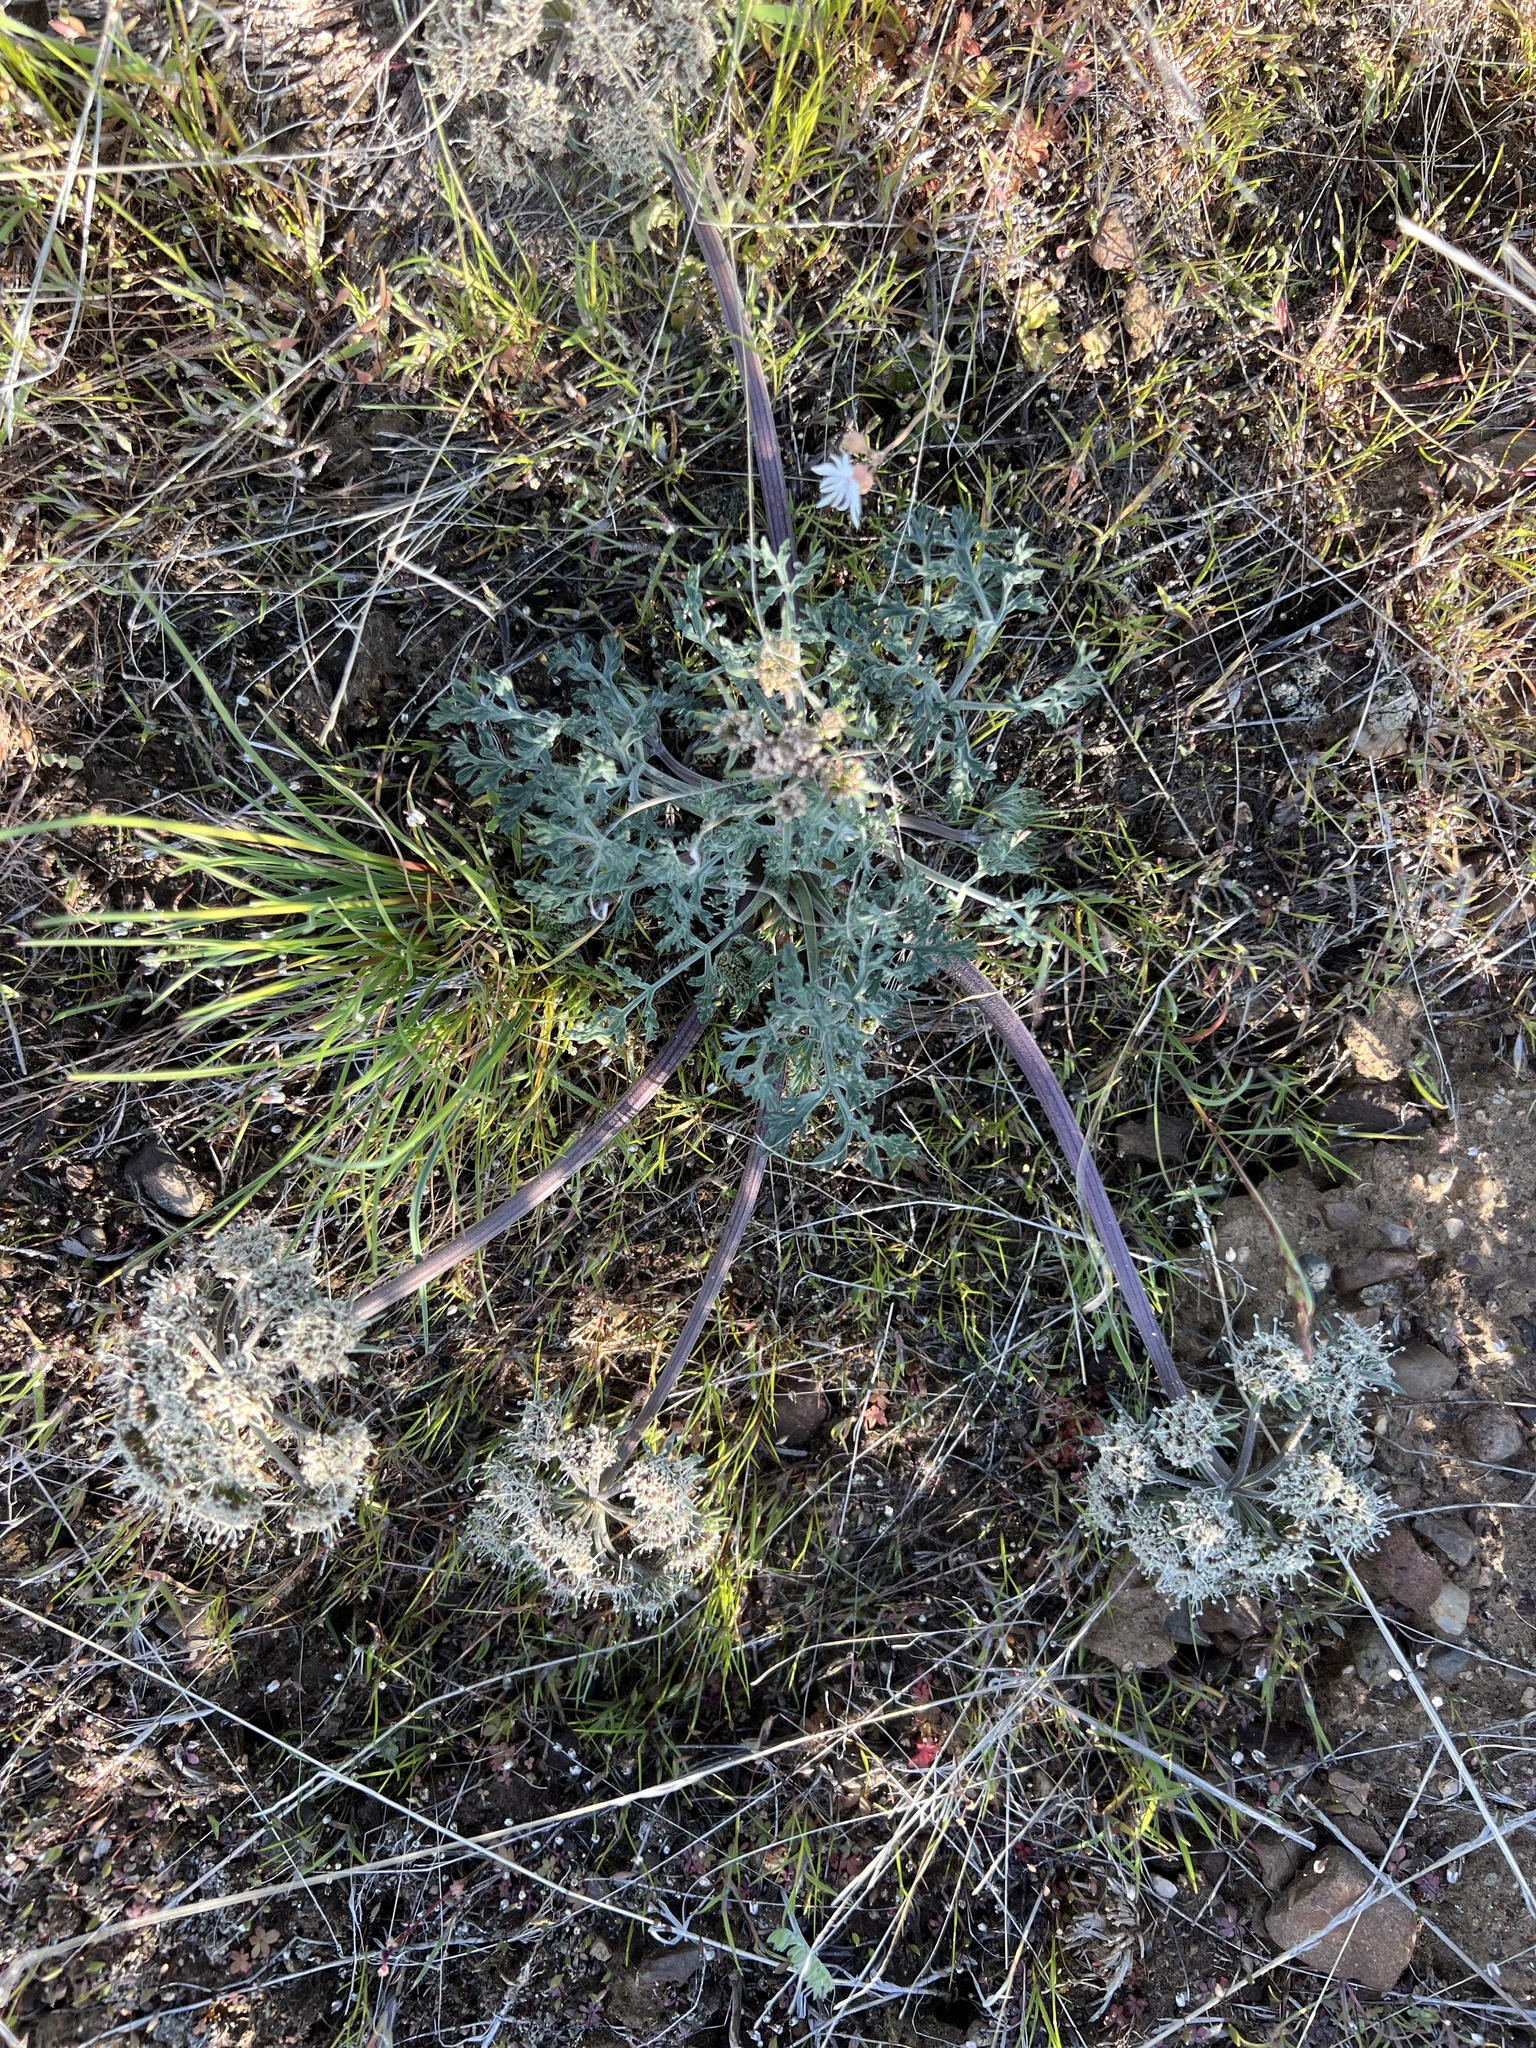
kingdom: Plantae
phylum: Tracheophyta
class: Magnoliopsida
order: Apiales
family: Apiaceae
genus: Lomatium
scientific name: Lomatium macrocarpum
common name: Big-seed biscuitroot
